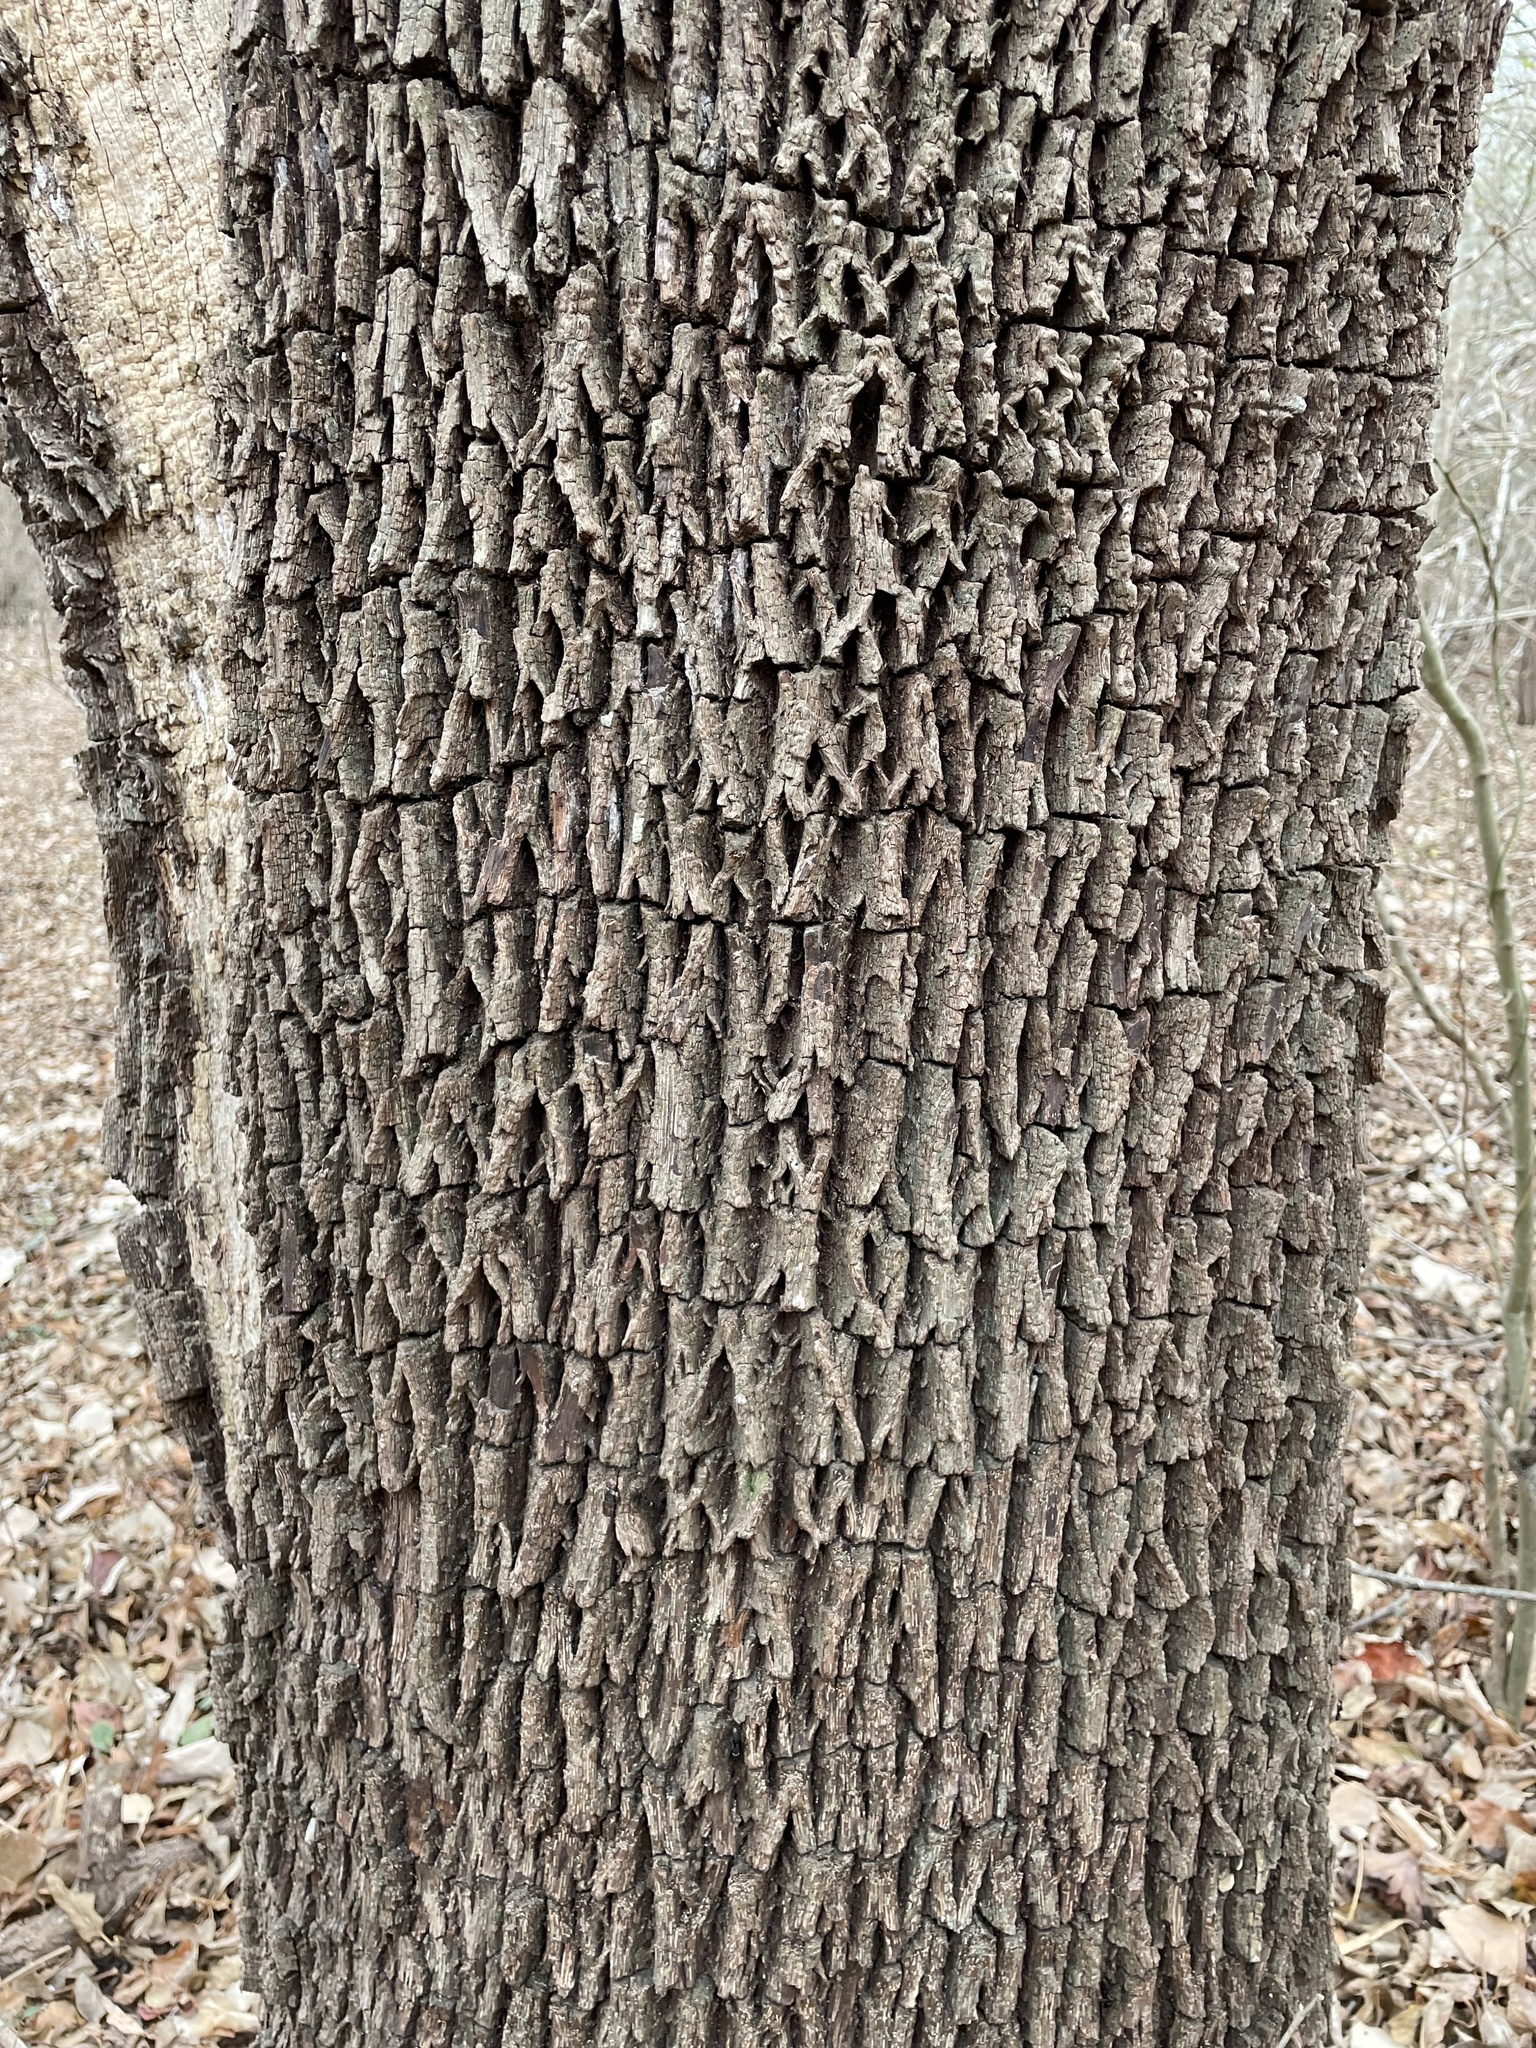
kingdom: Plantae
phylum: Tracheophyta
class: Magnoliopsida
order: Ericales
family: Sapotaceae
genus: Sideroxylon
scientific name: Sideroxylon lanuginosum
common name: Chittamwood
